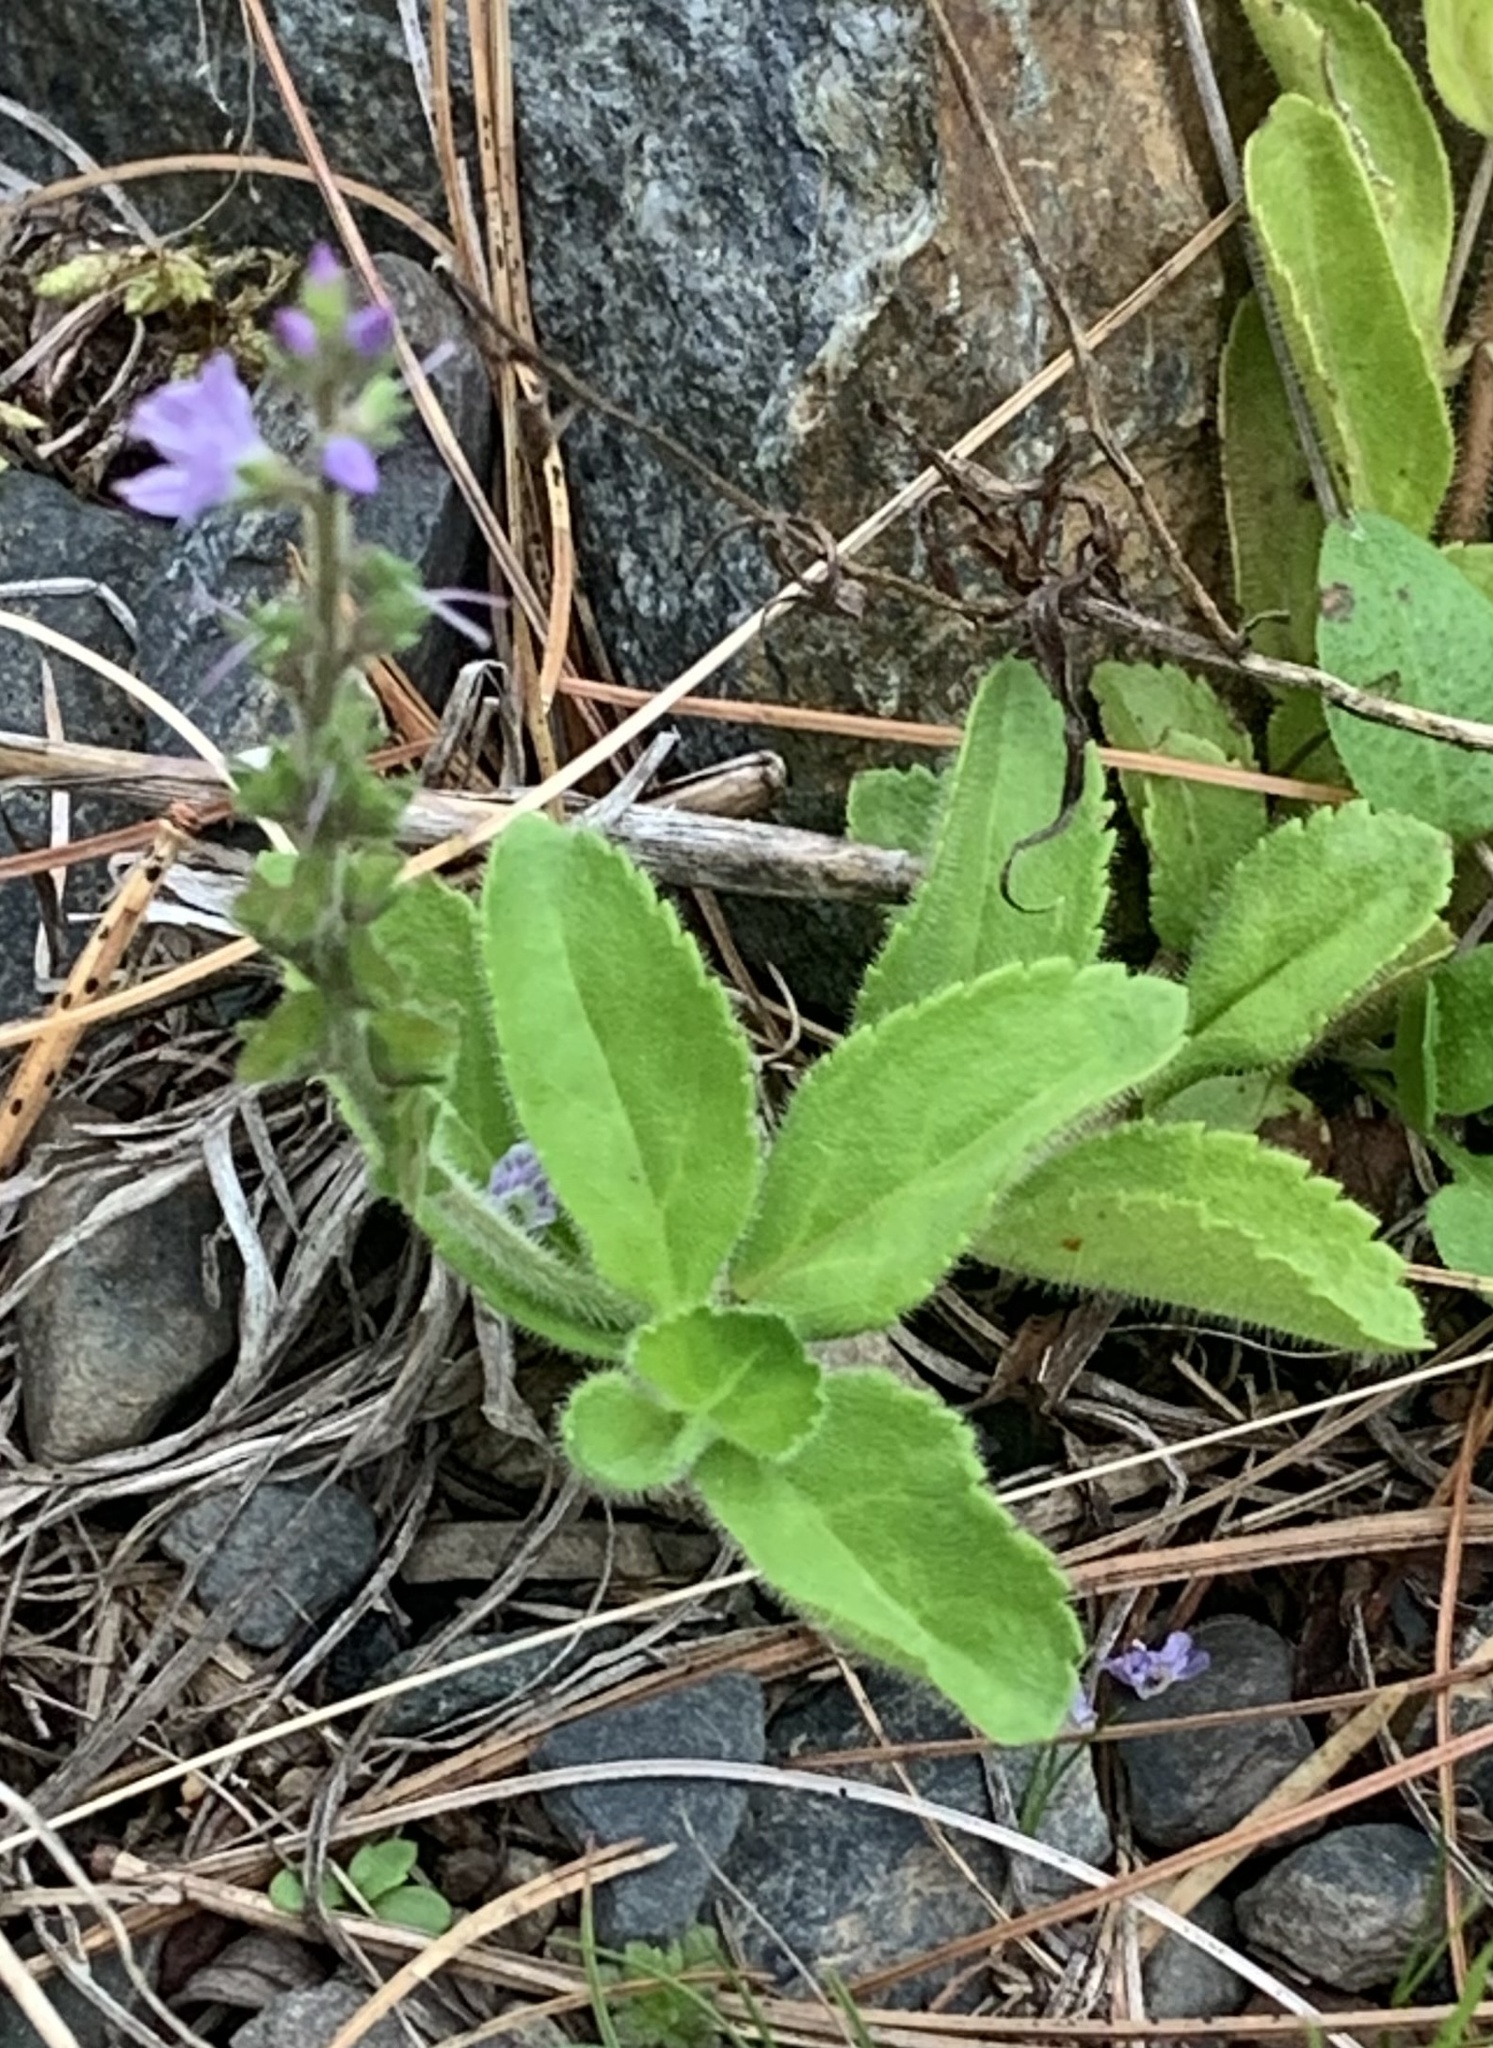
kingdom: Plantae
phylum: Tracheophyta
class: Magnoliopsida
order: Lamiales
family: Plantaginaceae
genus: Veronica
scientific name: Veronica officinalis
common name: Common speedwell
